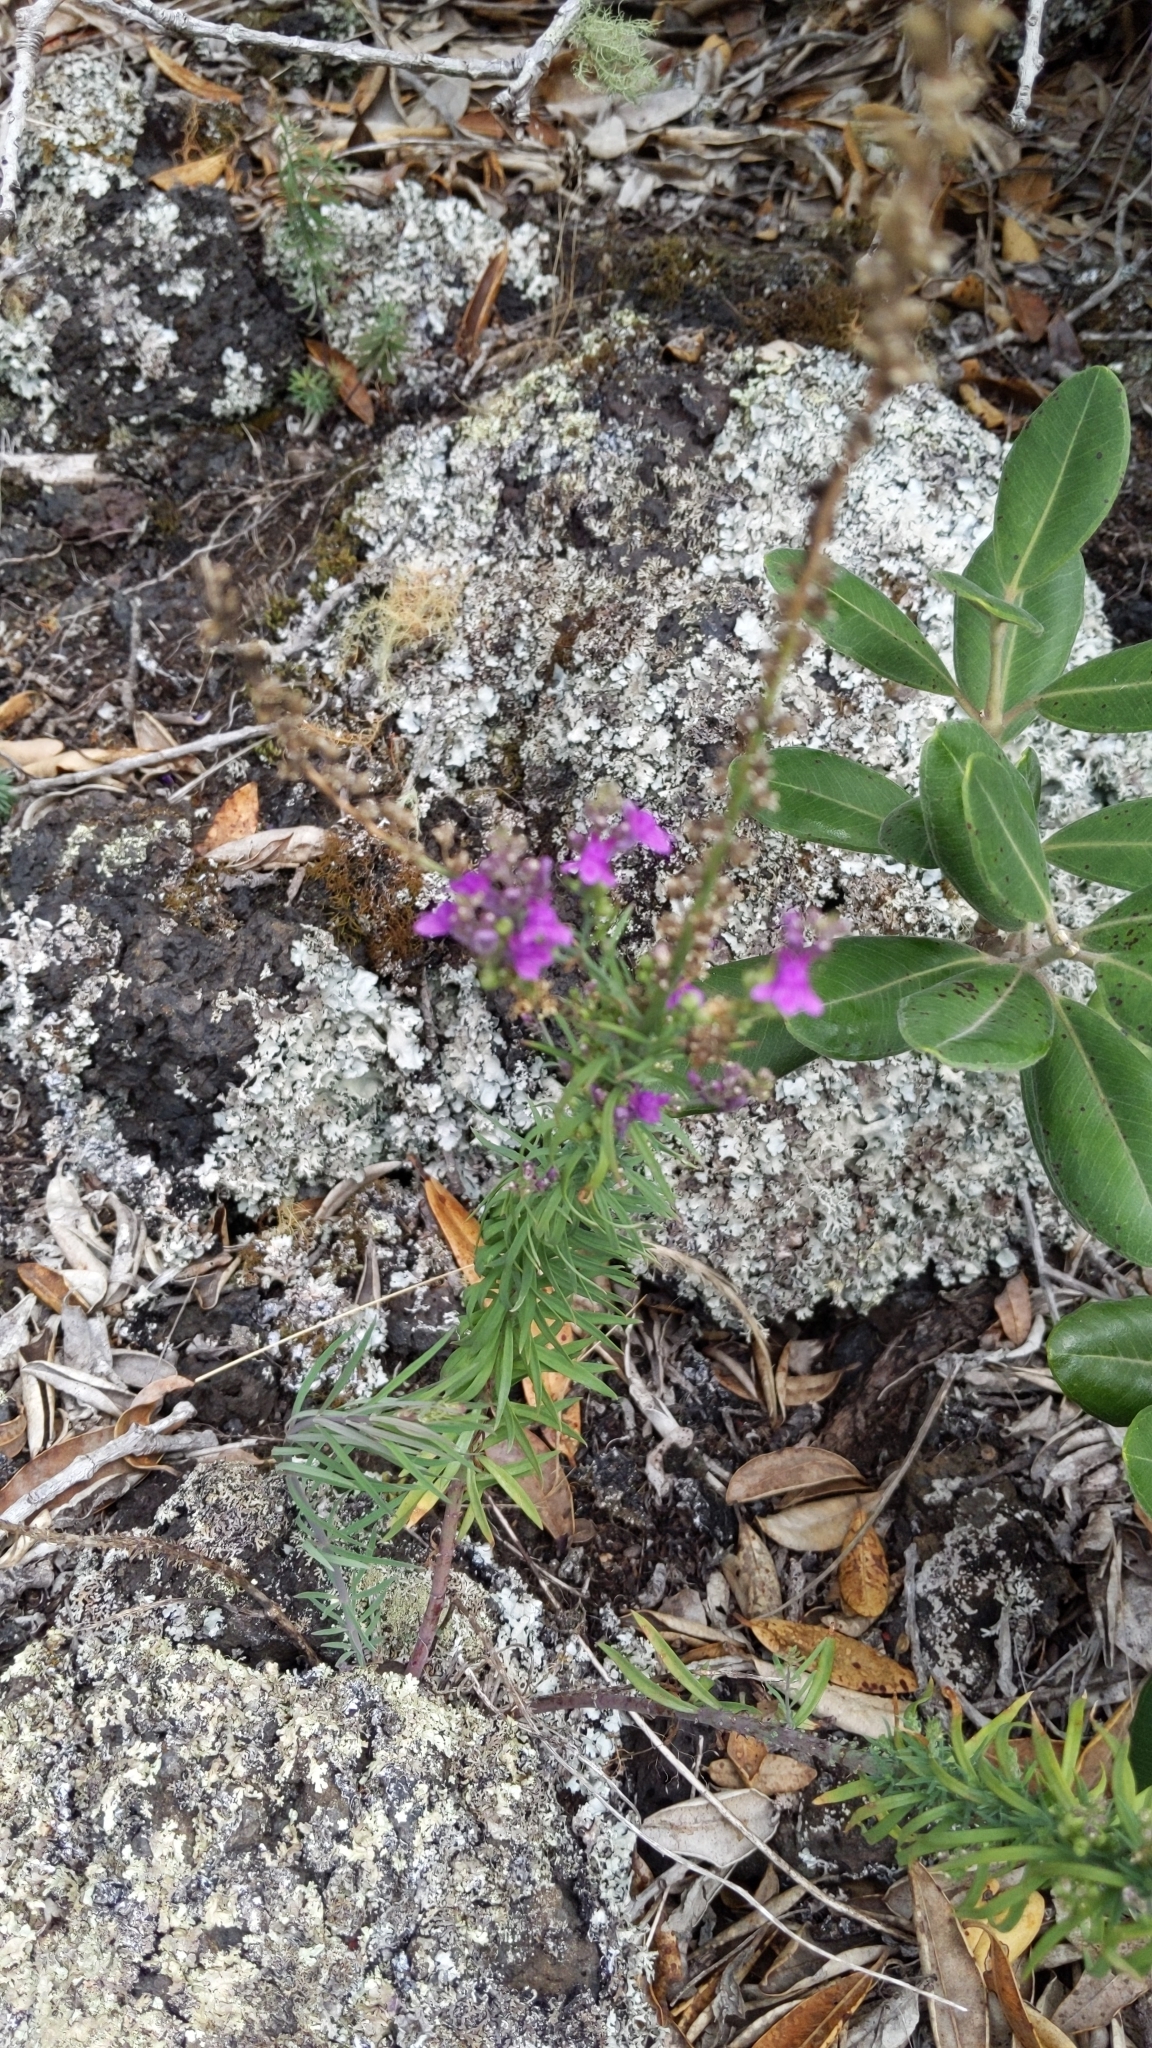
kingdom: Plantae
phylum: Tracheophyta
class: Magnoliopsida
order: Lamiales
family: Plantaginaceae
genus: Linaria
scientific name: Linaria purpurea
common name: Purple toadflax
